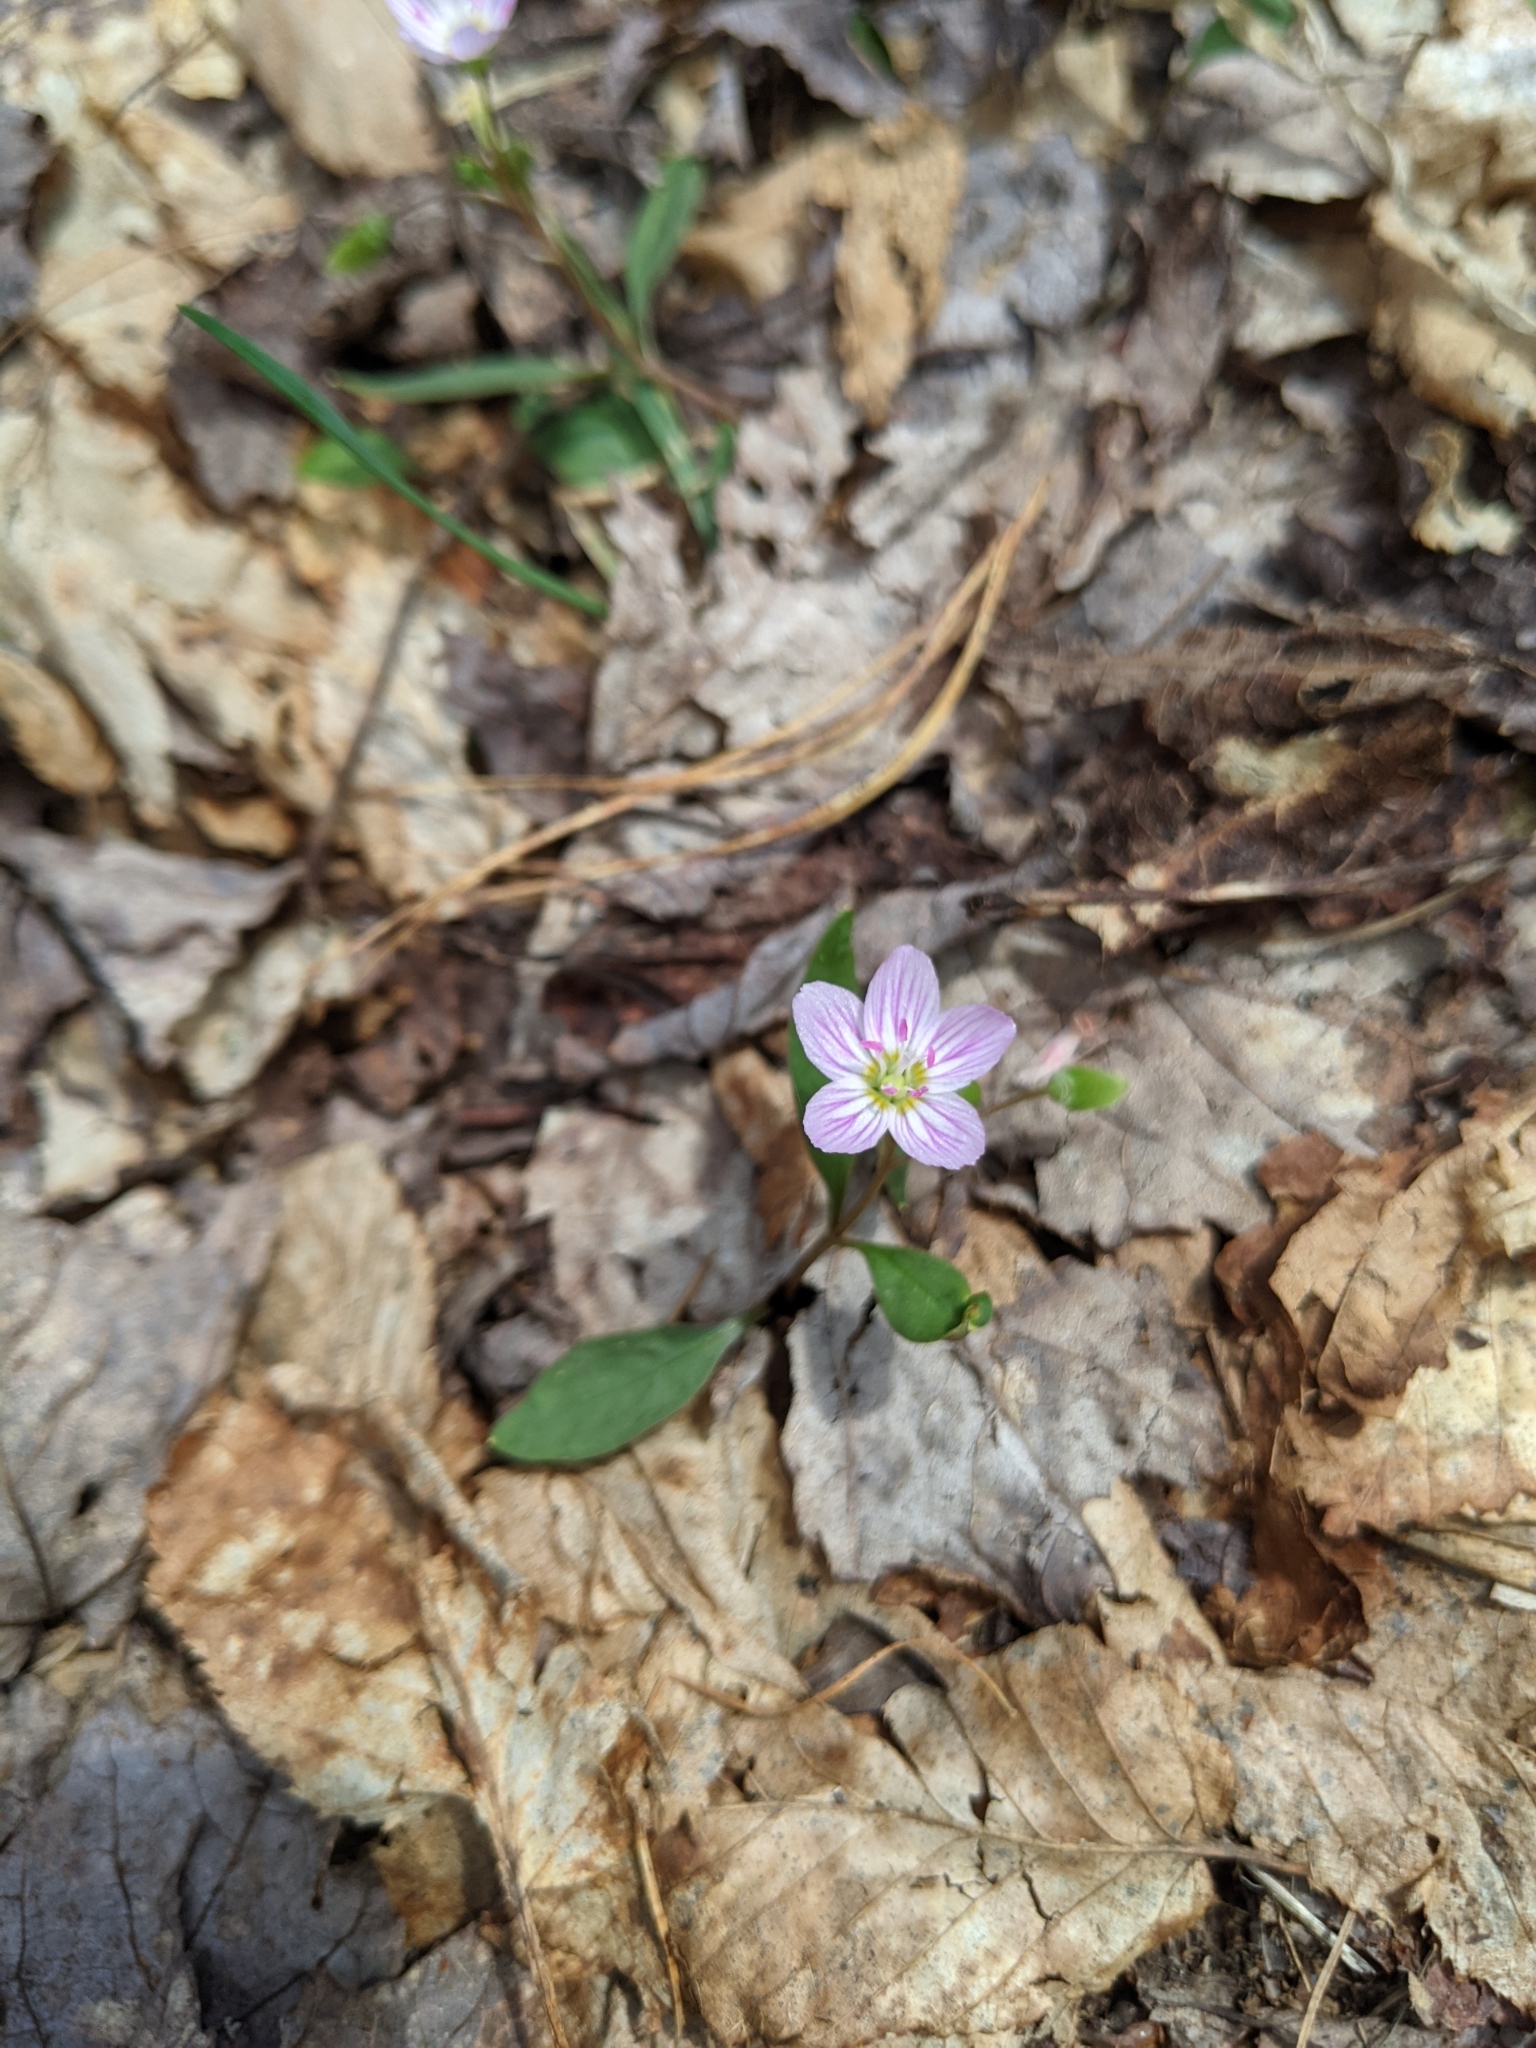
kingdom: Plantae
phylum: Tracheophyta
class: Magnoliopsida
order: Caryophyllales
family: Montiaceae
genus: Claytonia
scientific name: Claytonia caroliniana
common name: Carolina spring beauty
